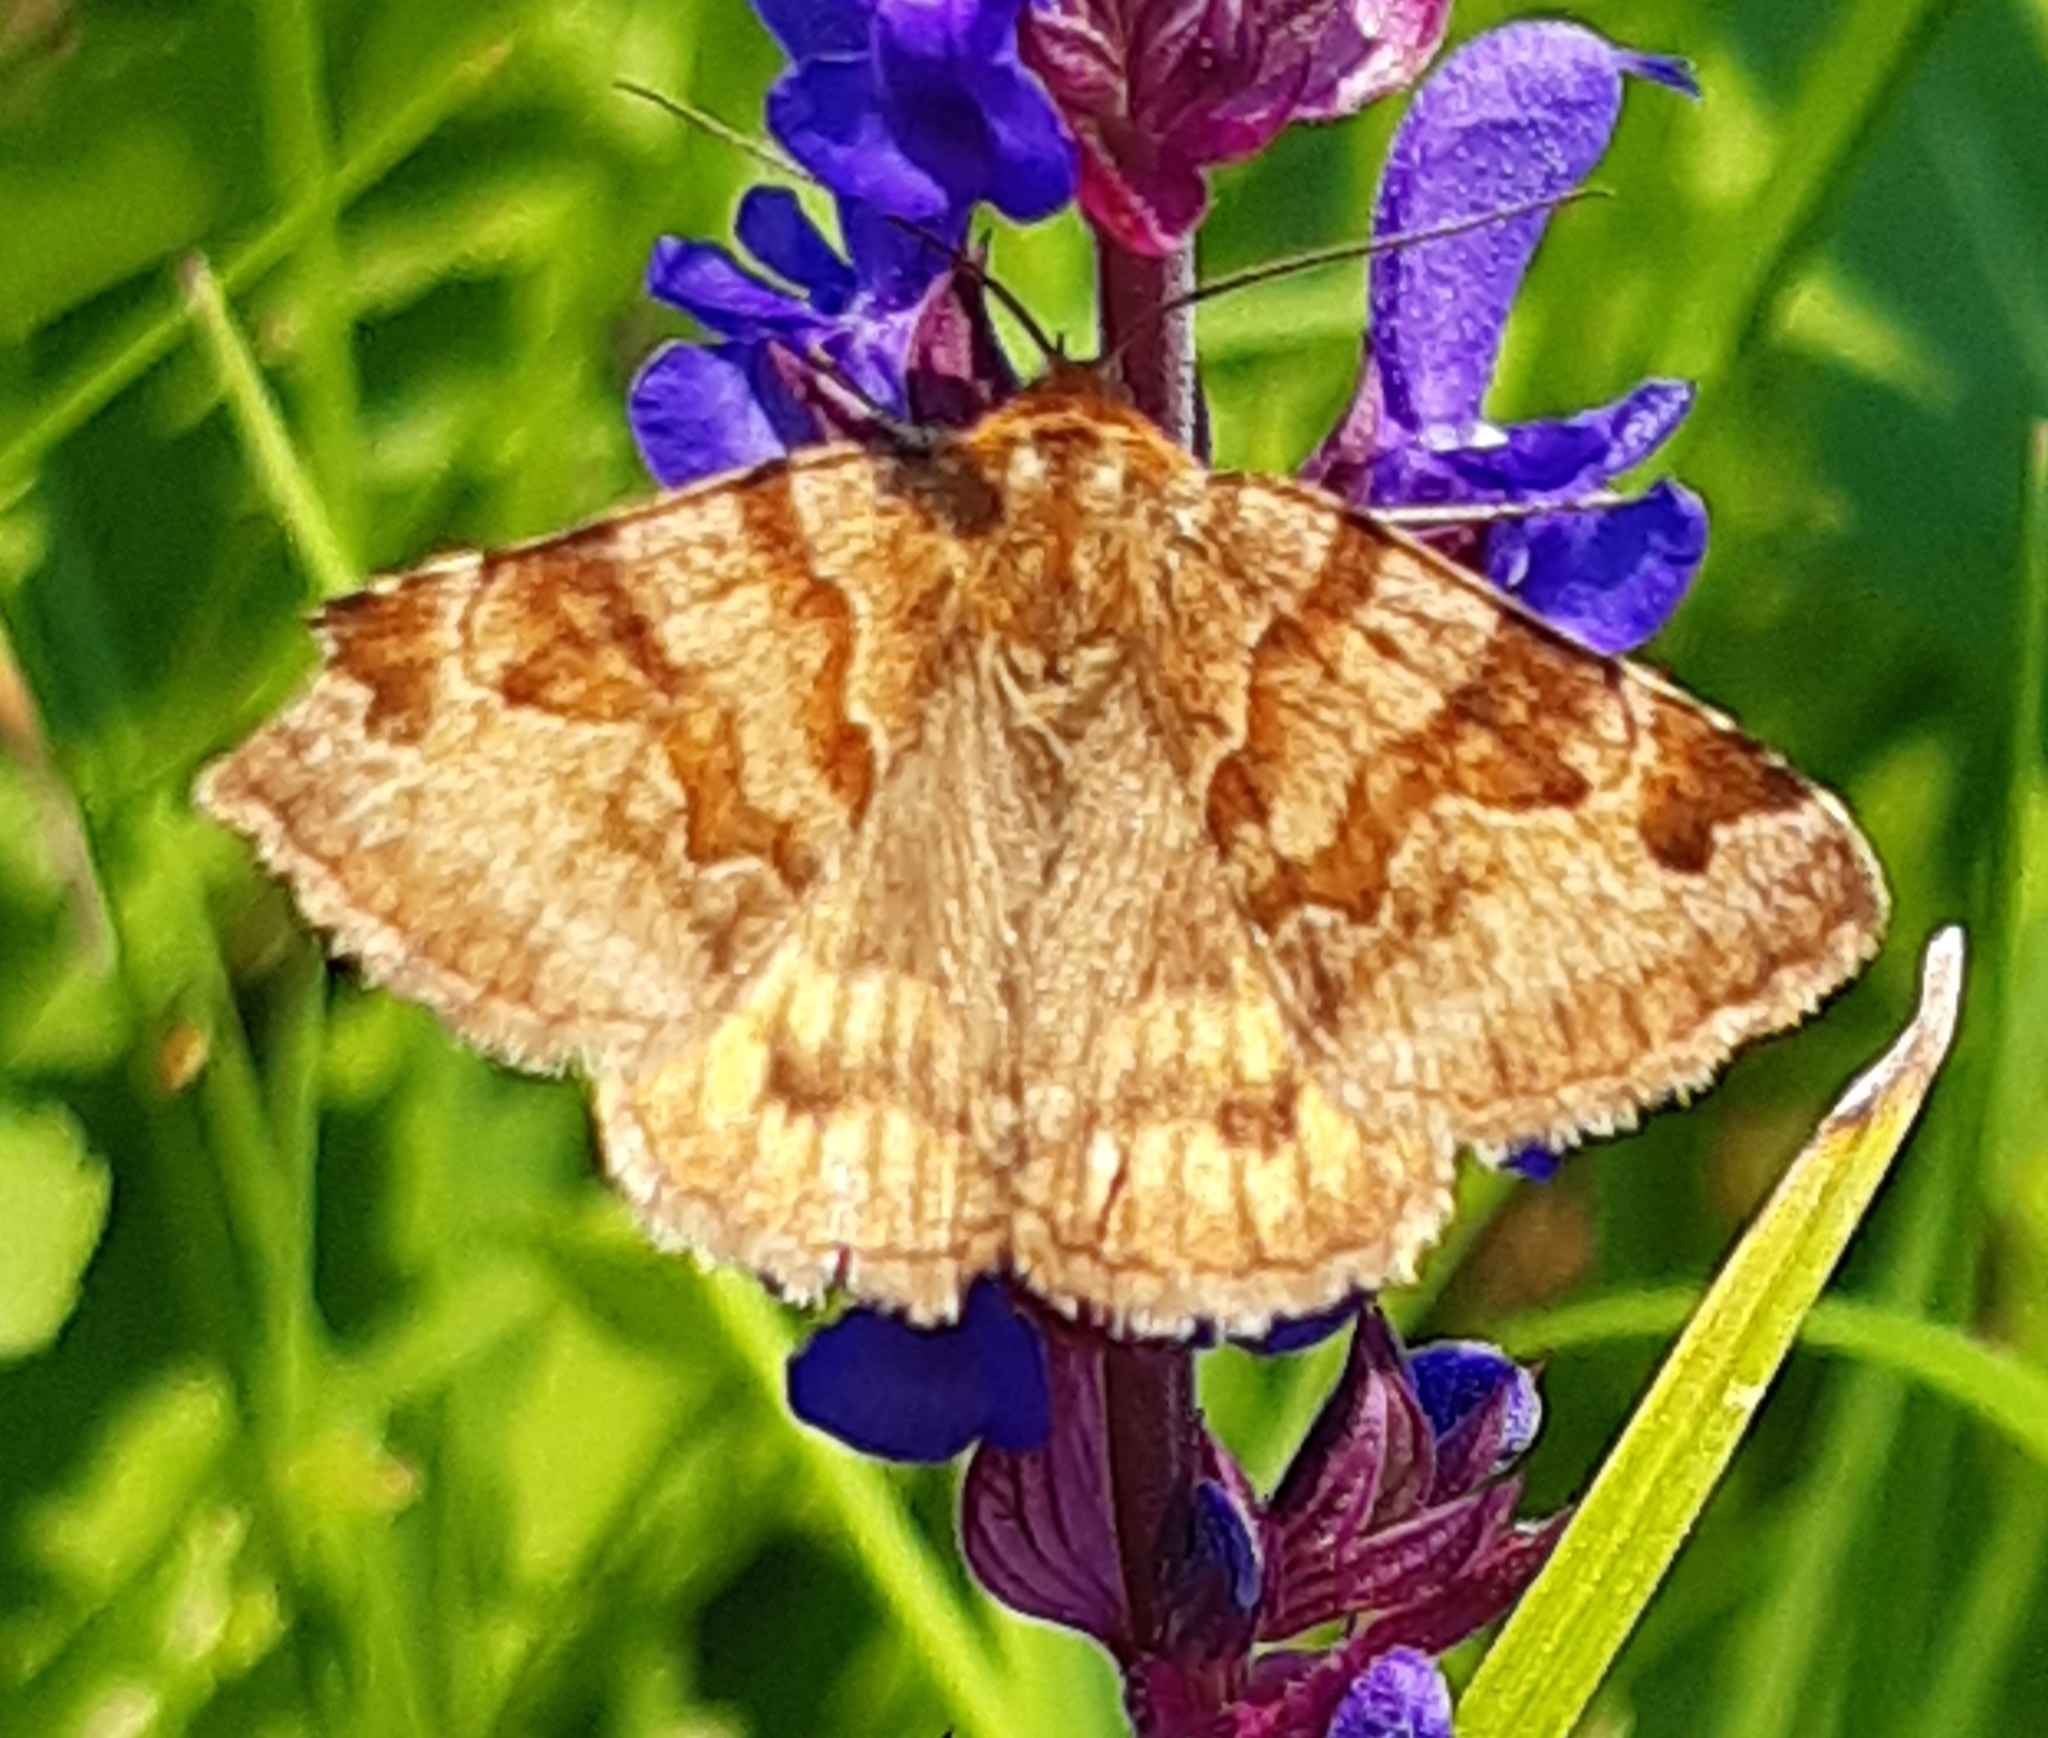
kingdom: Animalia
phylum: Arthropoda
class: Insecta
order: Lepidoptera
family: Erebidae
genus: Euclidia
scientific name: Euclidia glyphica
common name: Burnet companion
